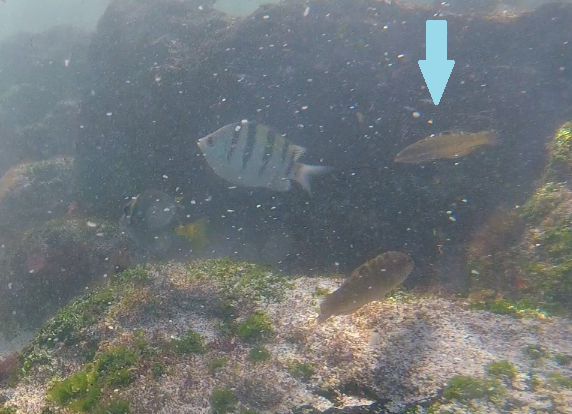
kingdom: Animalia
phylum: Chordata
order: Perciformes
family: Labridae
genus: Halichoeres
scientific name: Halichoeres nicholsi
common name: Spinster wrasse
